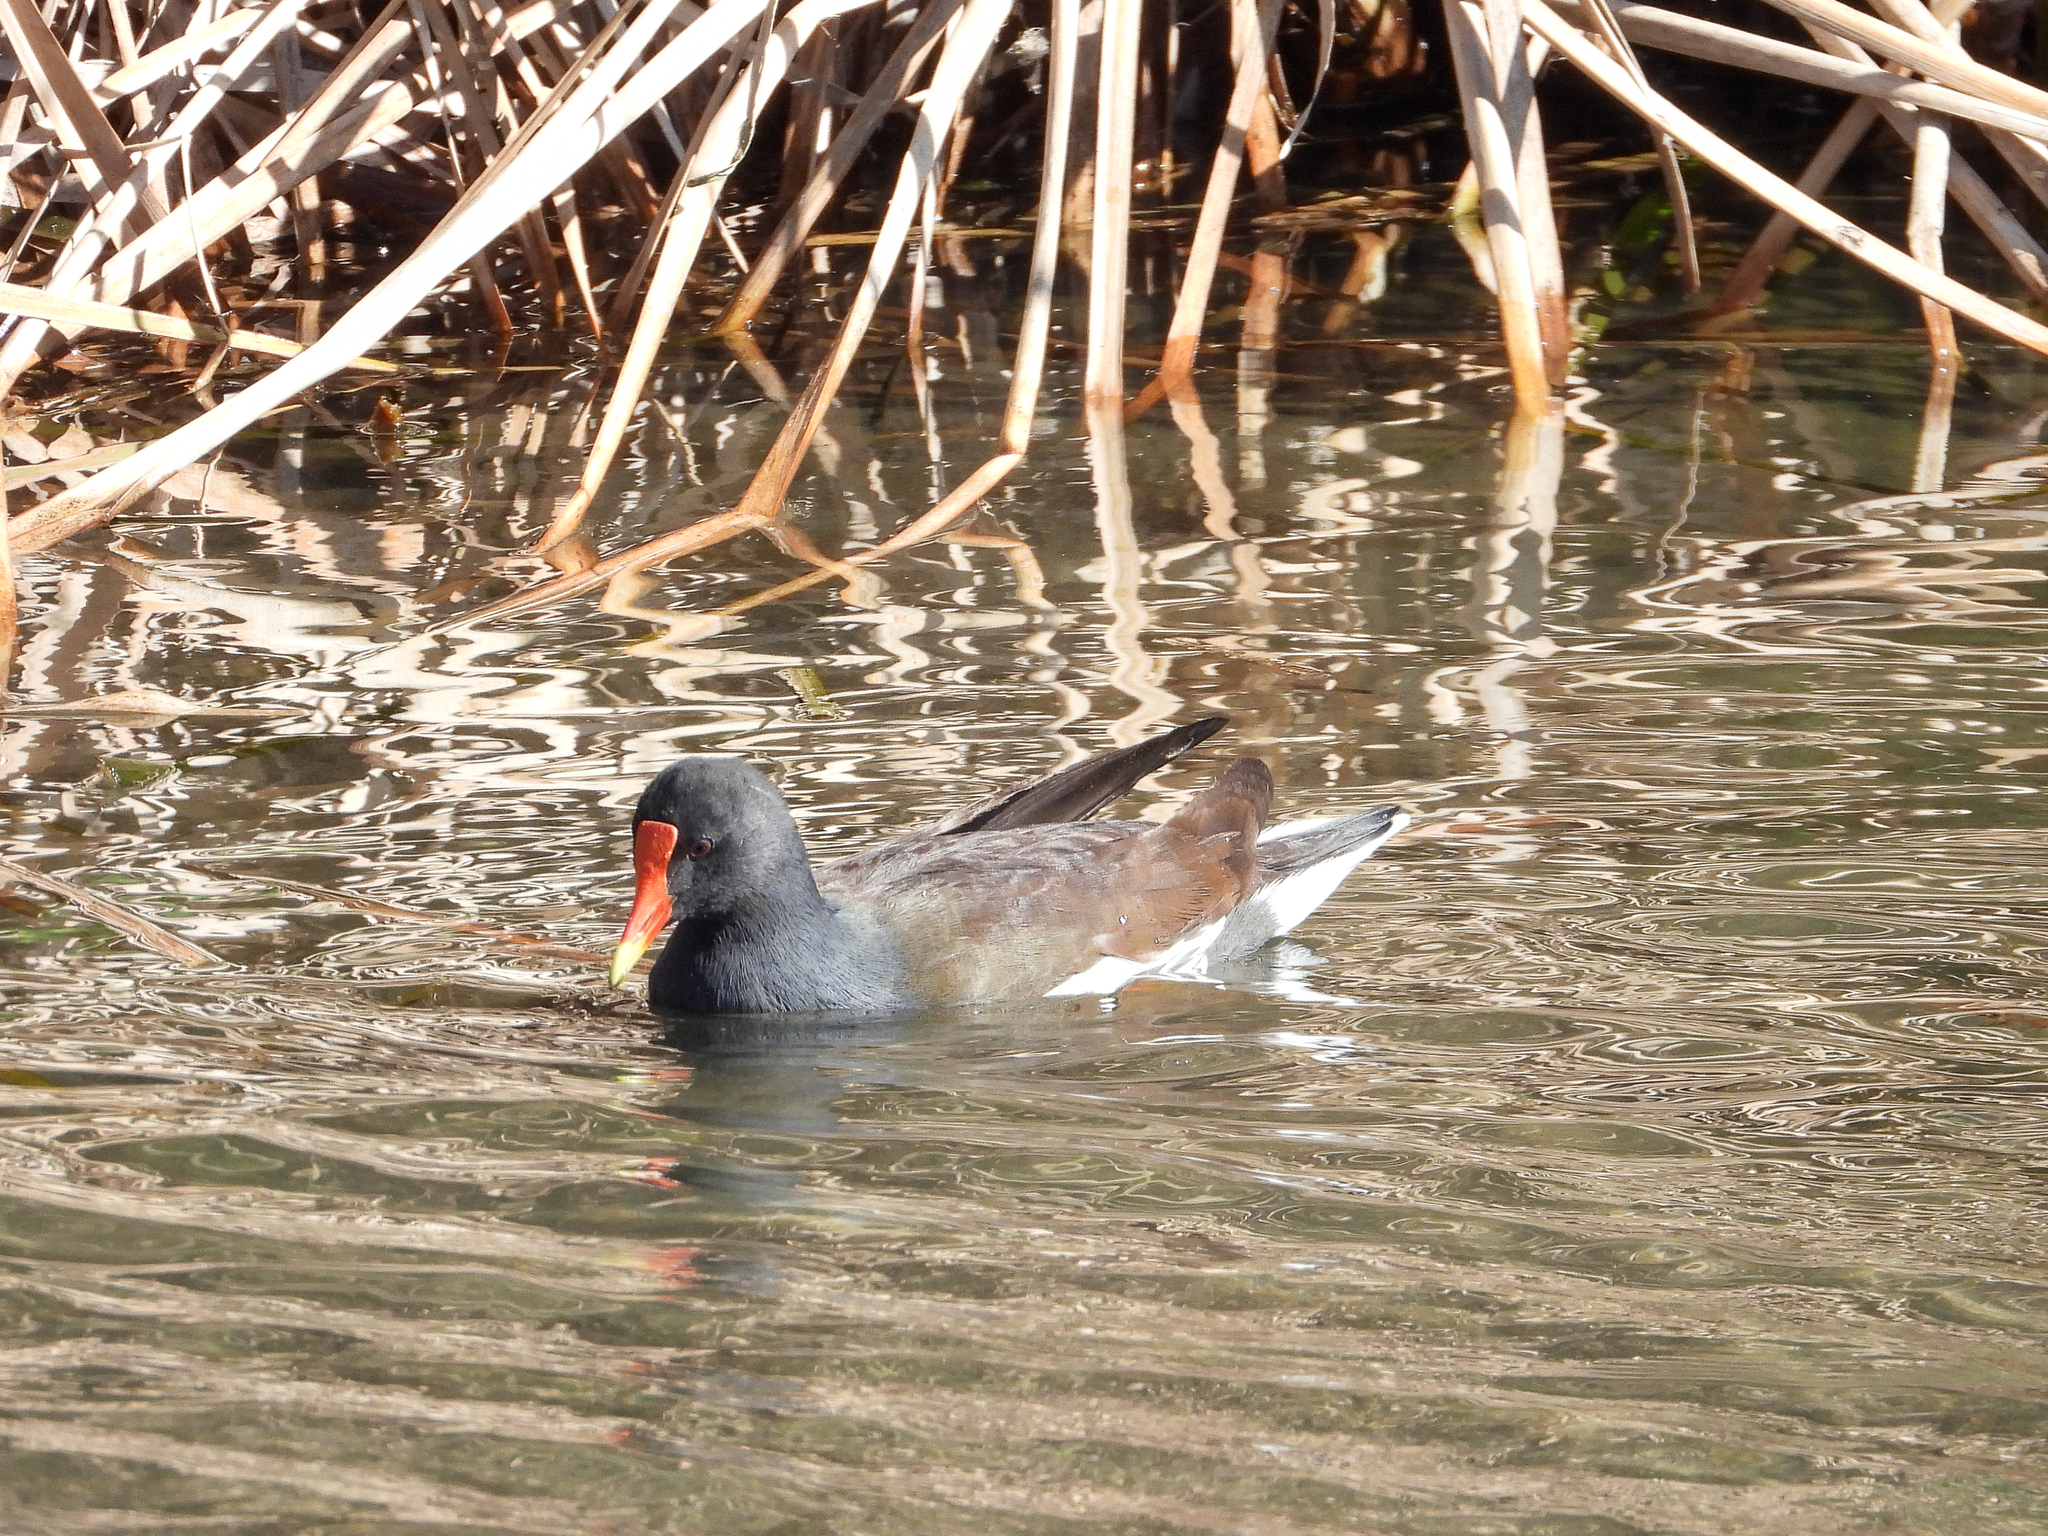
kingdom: Animalia
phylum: Chordata
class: Aves
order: Gruiformes
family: Rallidae
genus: Gallinula
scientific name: Gallinula chloropus
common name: Common moorhen
